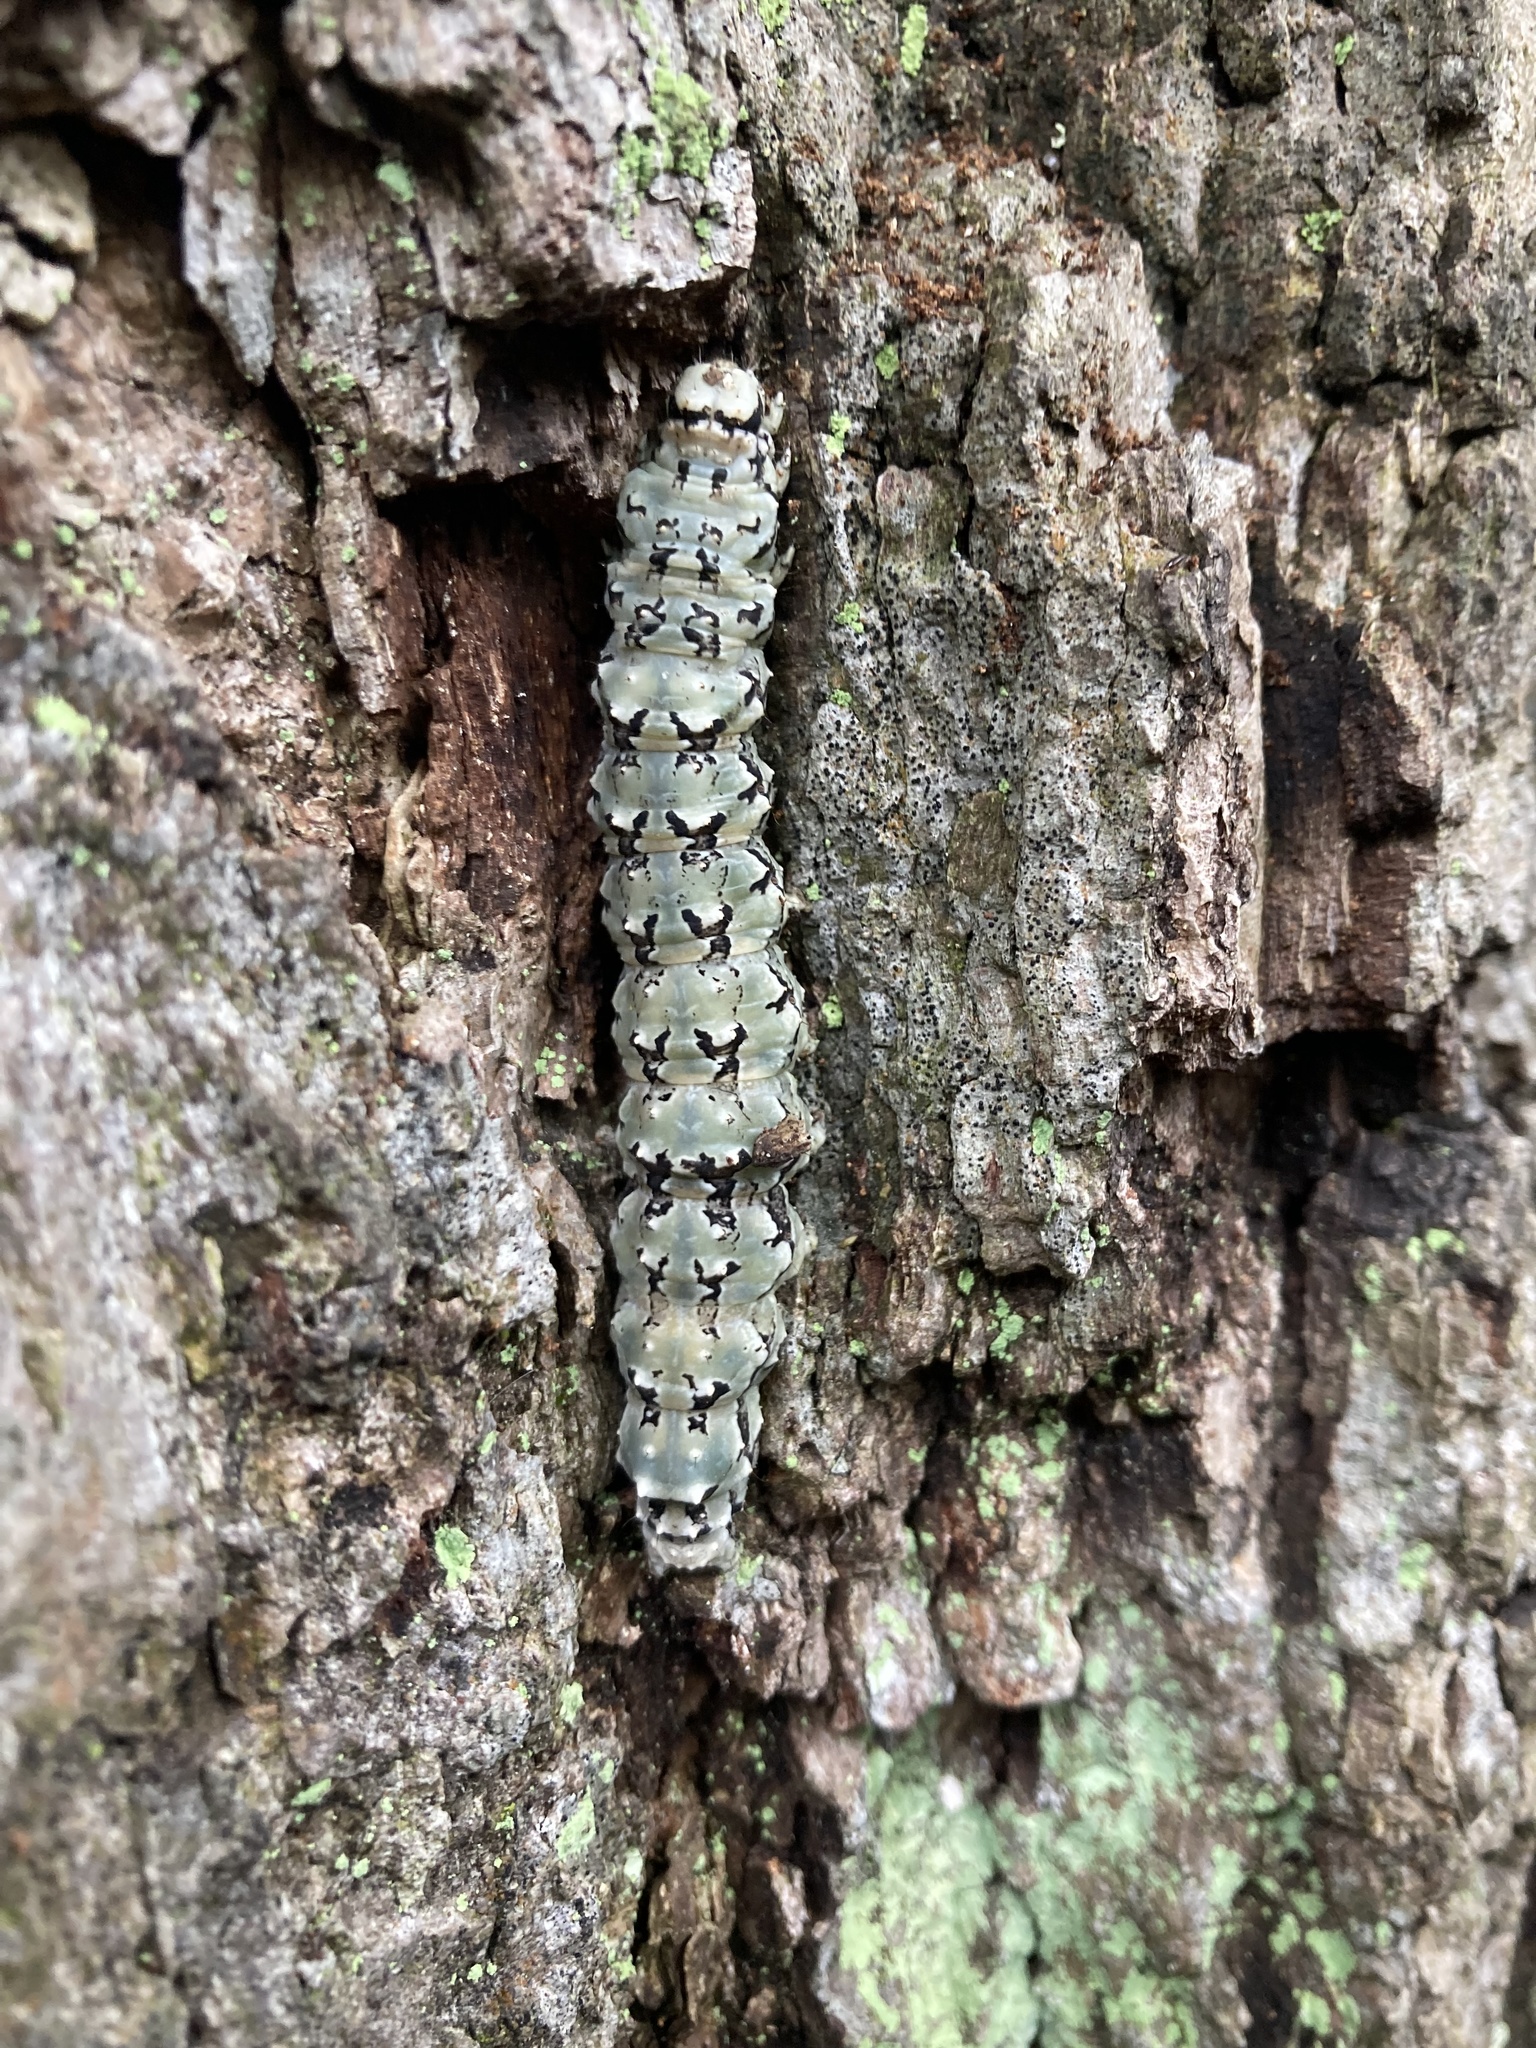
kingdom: Animalia
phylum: Arthropoda
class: Insecta
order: Lepidoptera
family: Erebidae
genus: Catocala
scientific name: Catocala ilia
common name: Ilia underwing
